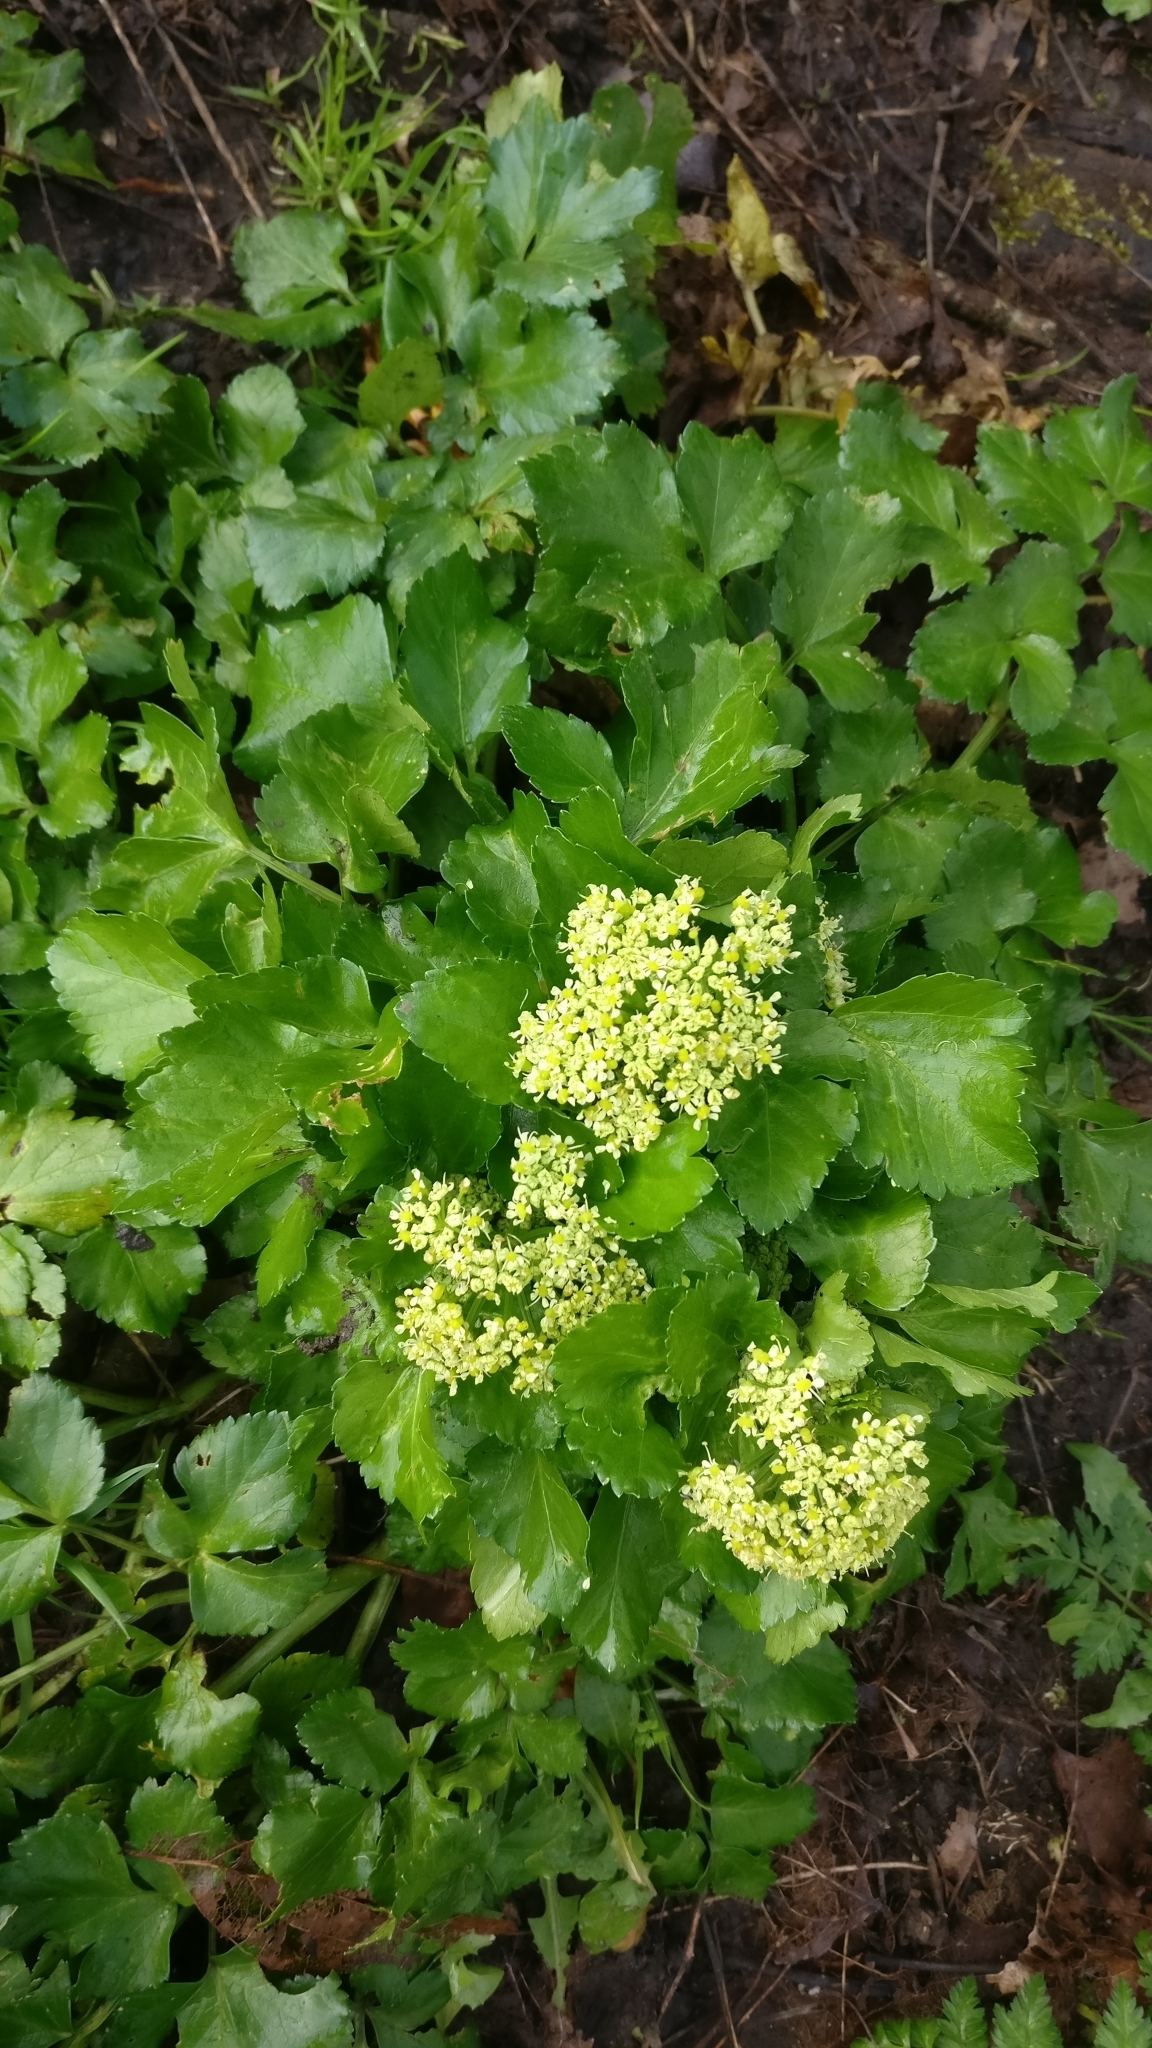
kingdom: Plantae
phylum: Tracheophyta
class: Magnoliopsida
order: Apiales
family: Apiaceae
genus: Smyrnium
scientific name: Smyrnium olusatrum
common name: Alexanders
